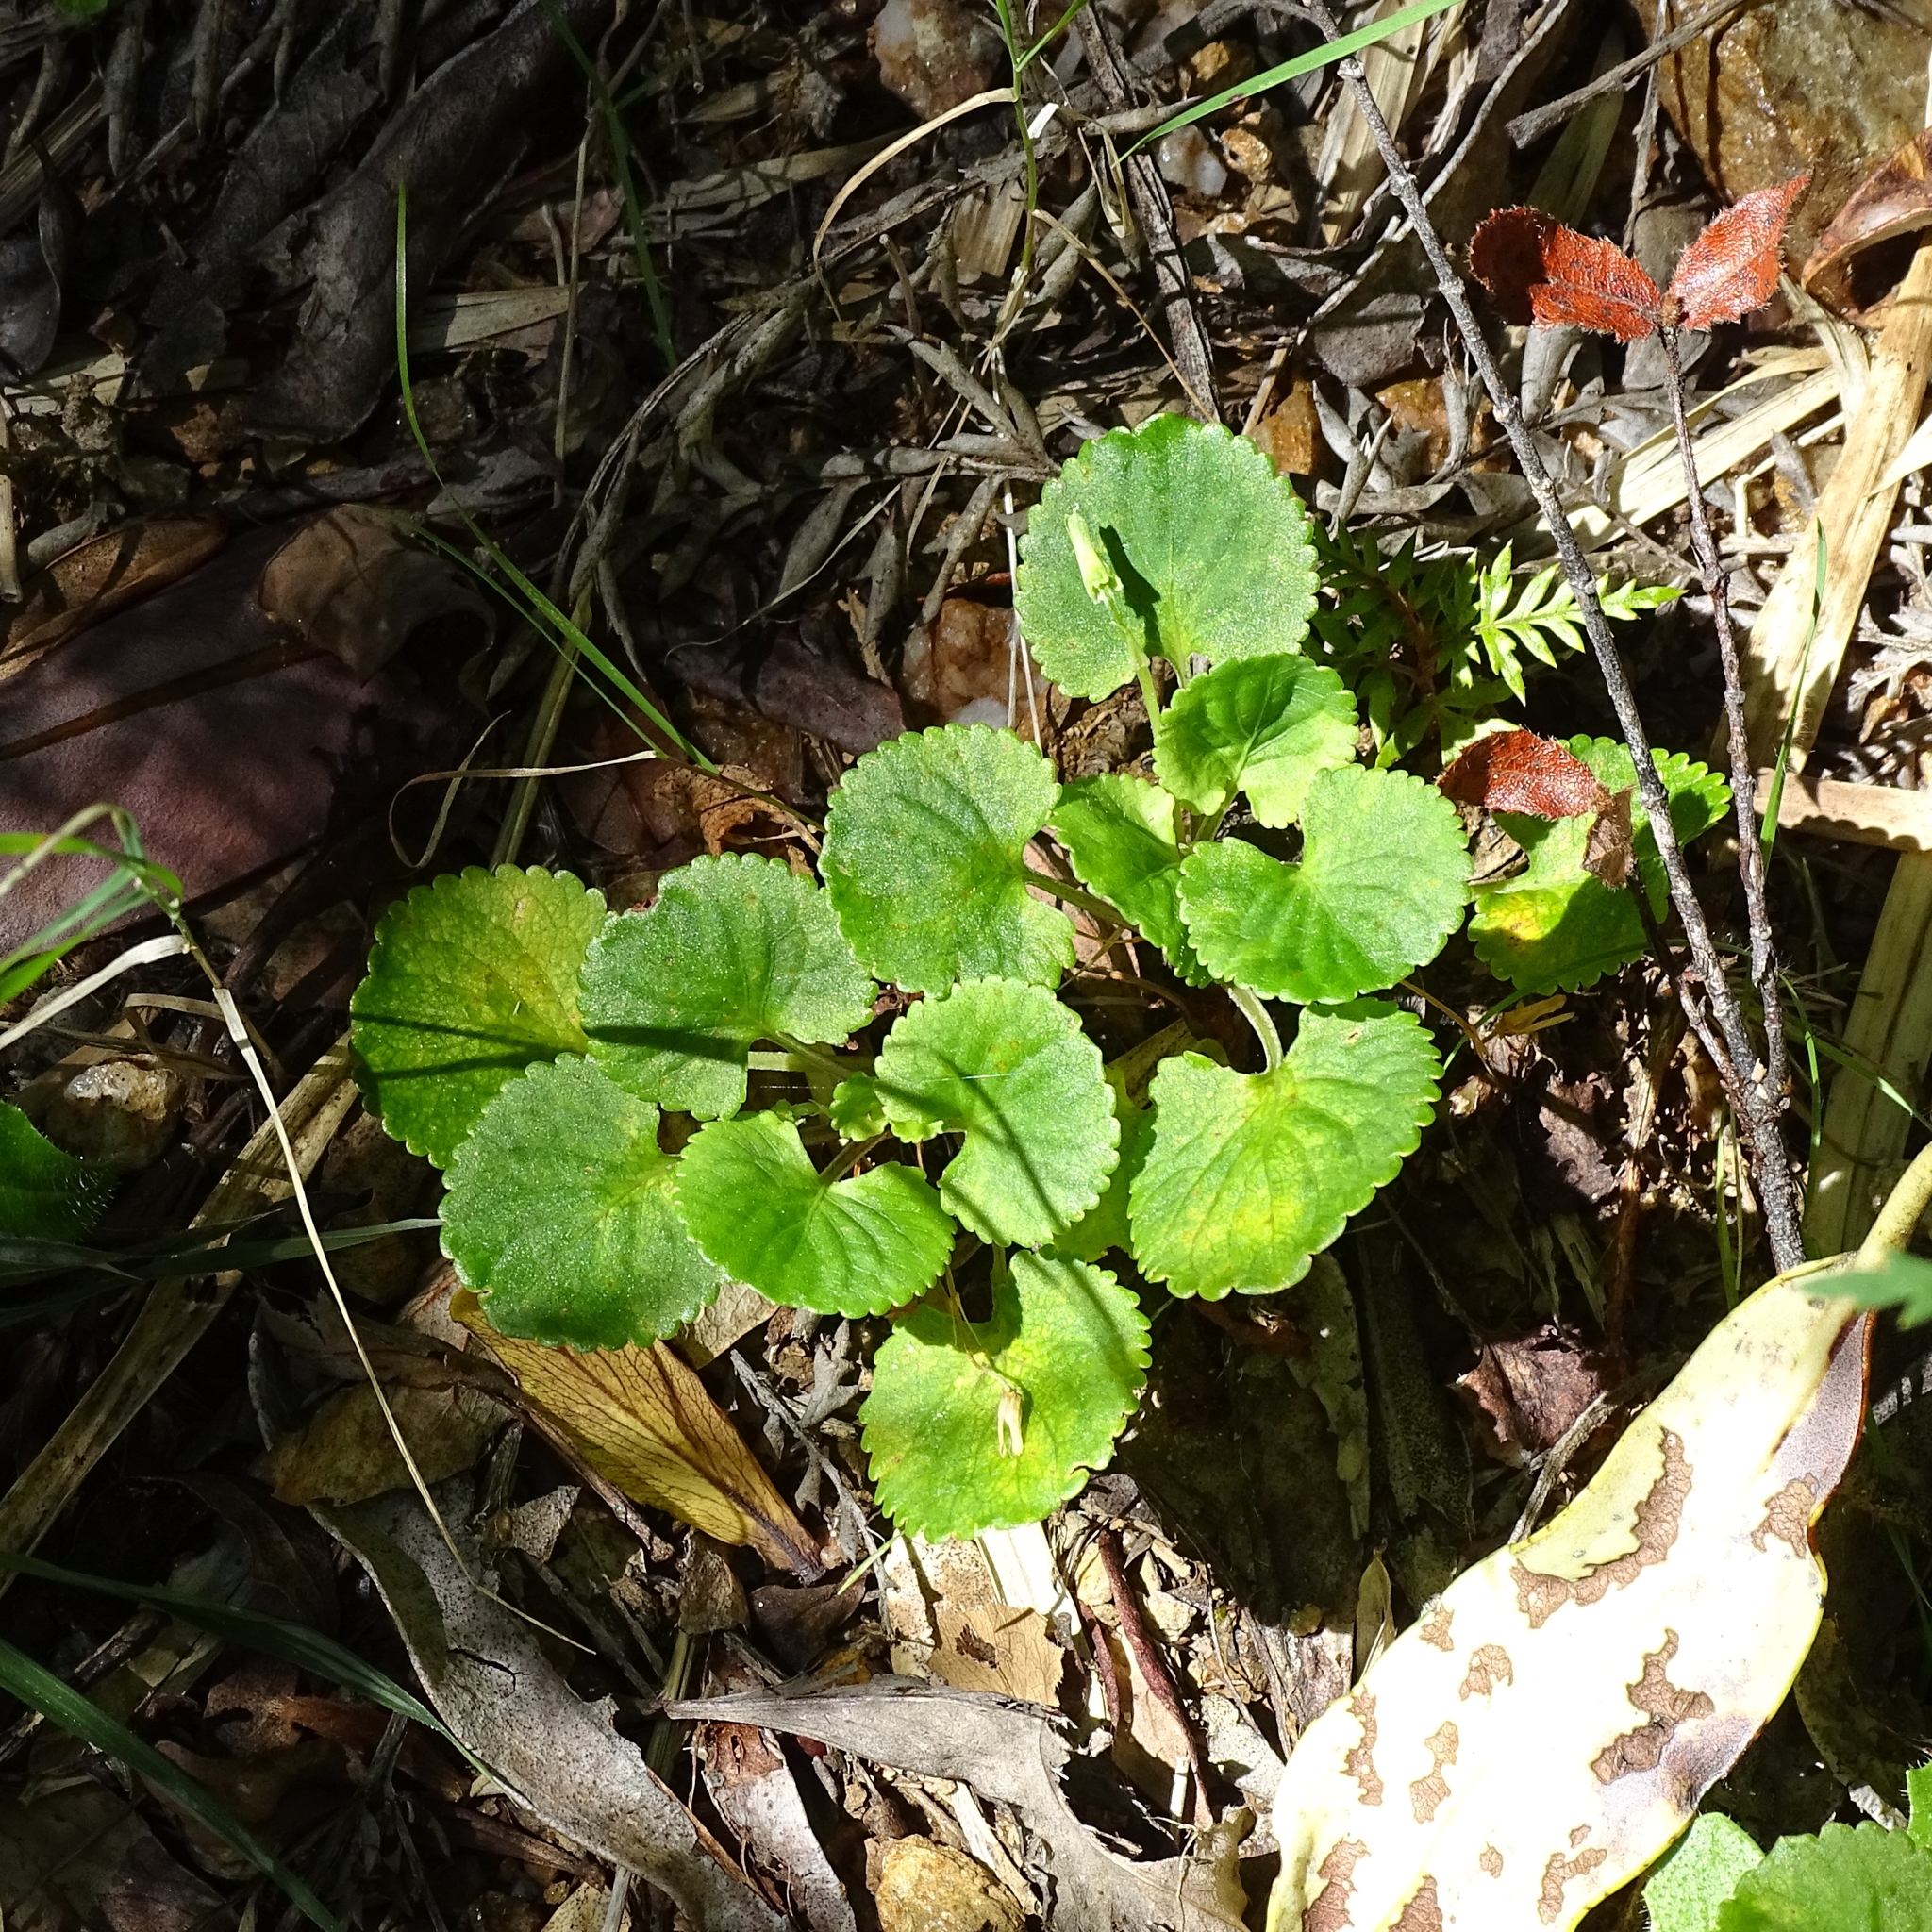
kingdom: Plantae
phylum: Tracheophyta
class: Magnoliopsida
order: Malpighiales
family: Violaceae
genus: Viola
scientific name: Viola reichei
